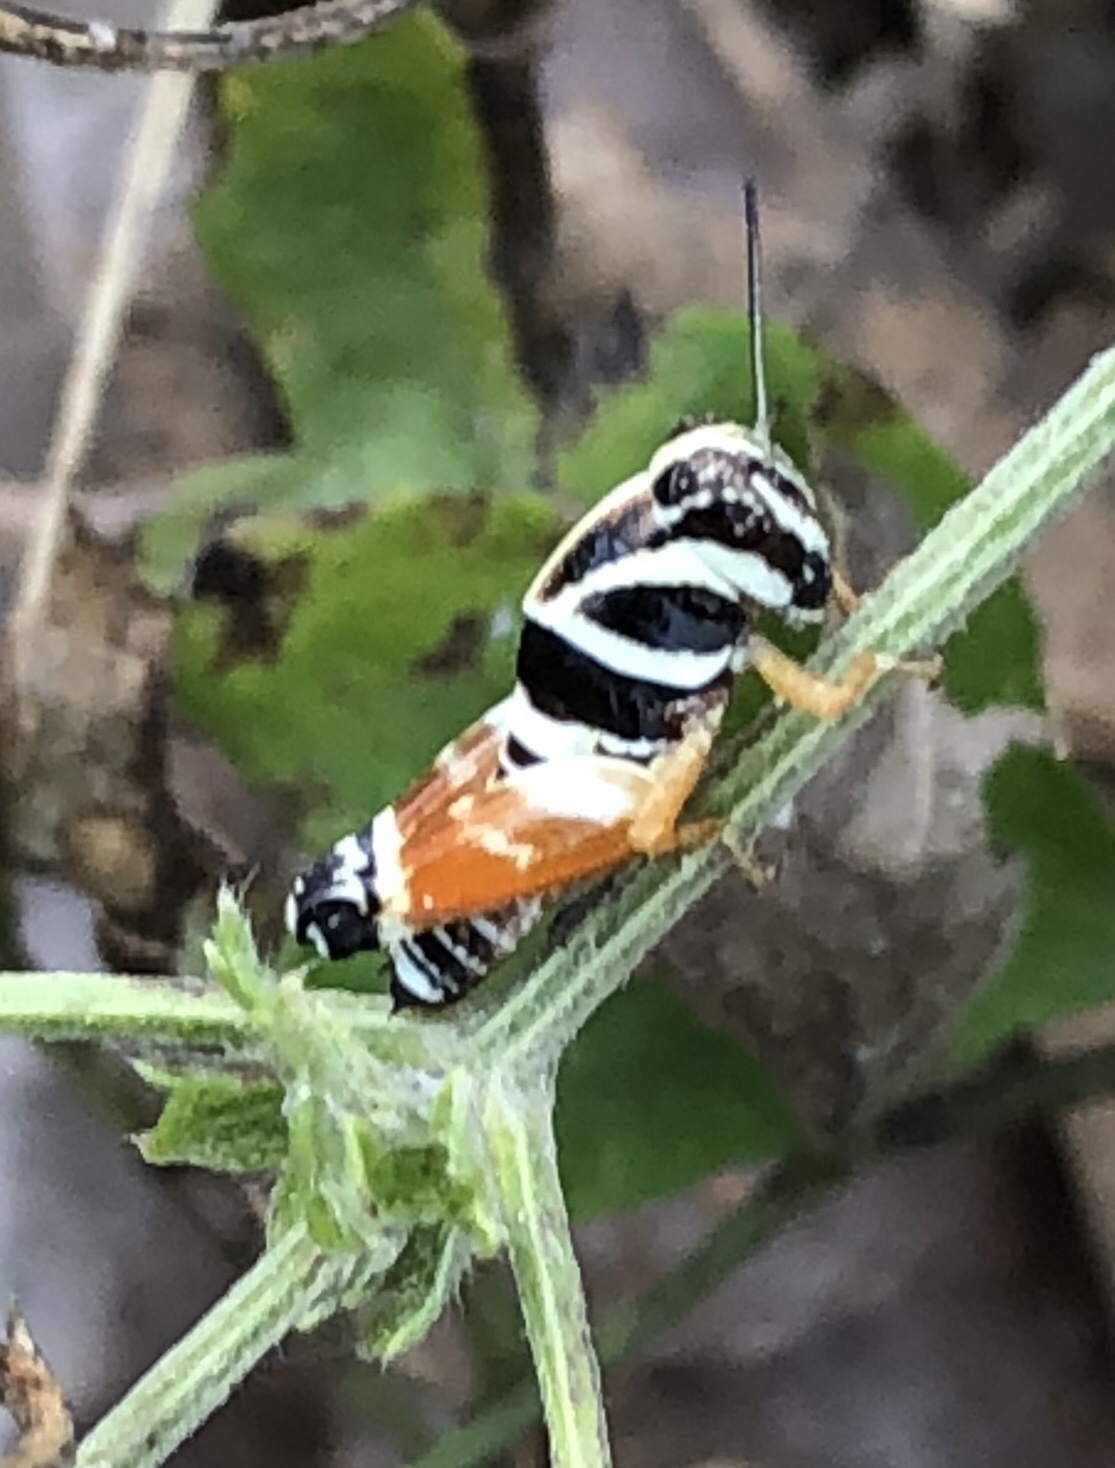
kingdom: Animalia
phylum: Arthropoda
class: Insecta
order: Orthoptera
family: Acrididae
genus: Aidemona
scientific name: Aidemona azteca
